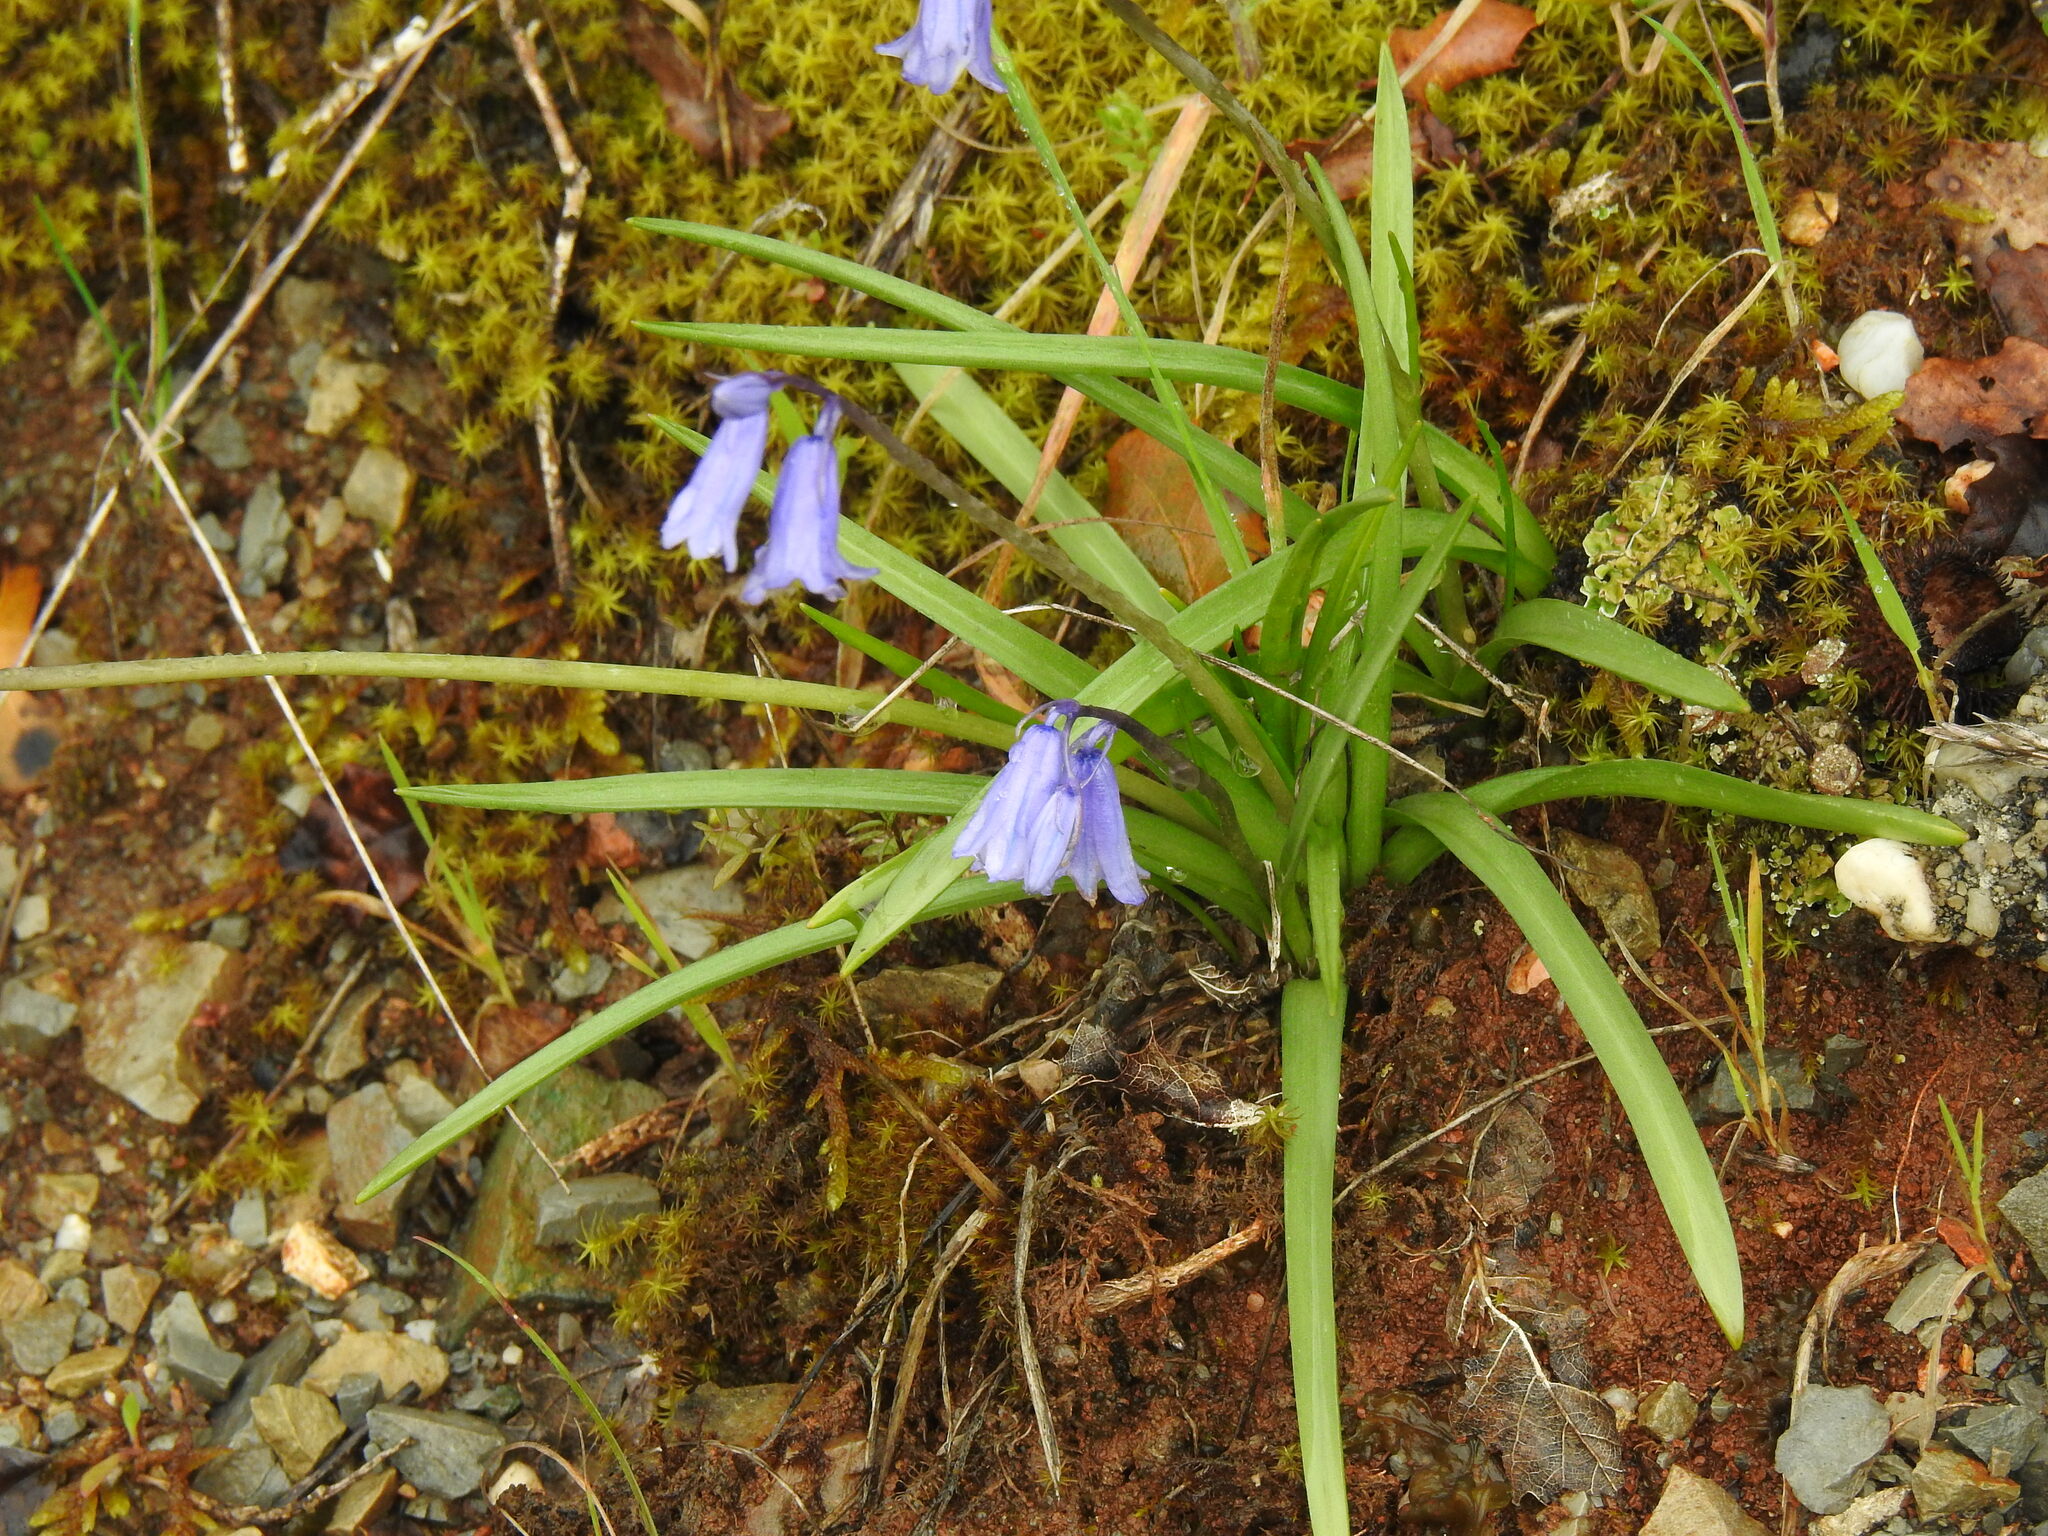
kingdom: Plantae
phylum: Tracheophyta
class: Liliopsida
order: Asparagales
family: Asparagaceae
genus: Hyacinthoides
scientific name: Hyacinthoides hispanica
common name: Spanish bluebell
